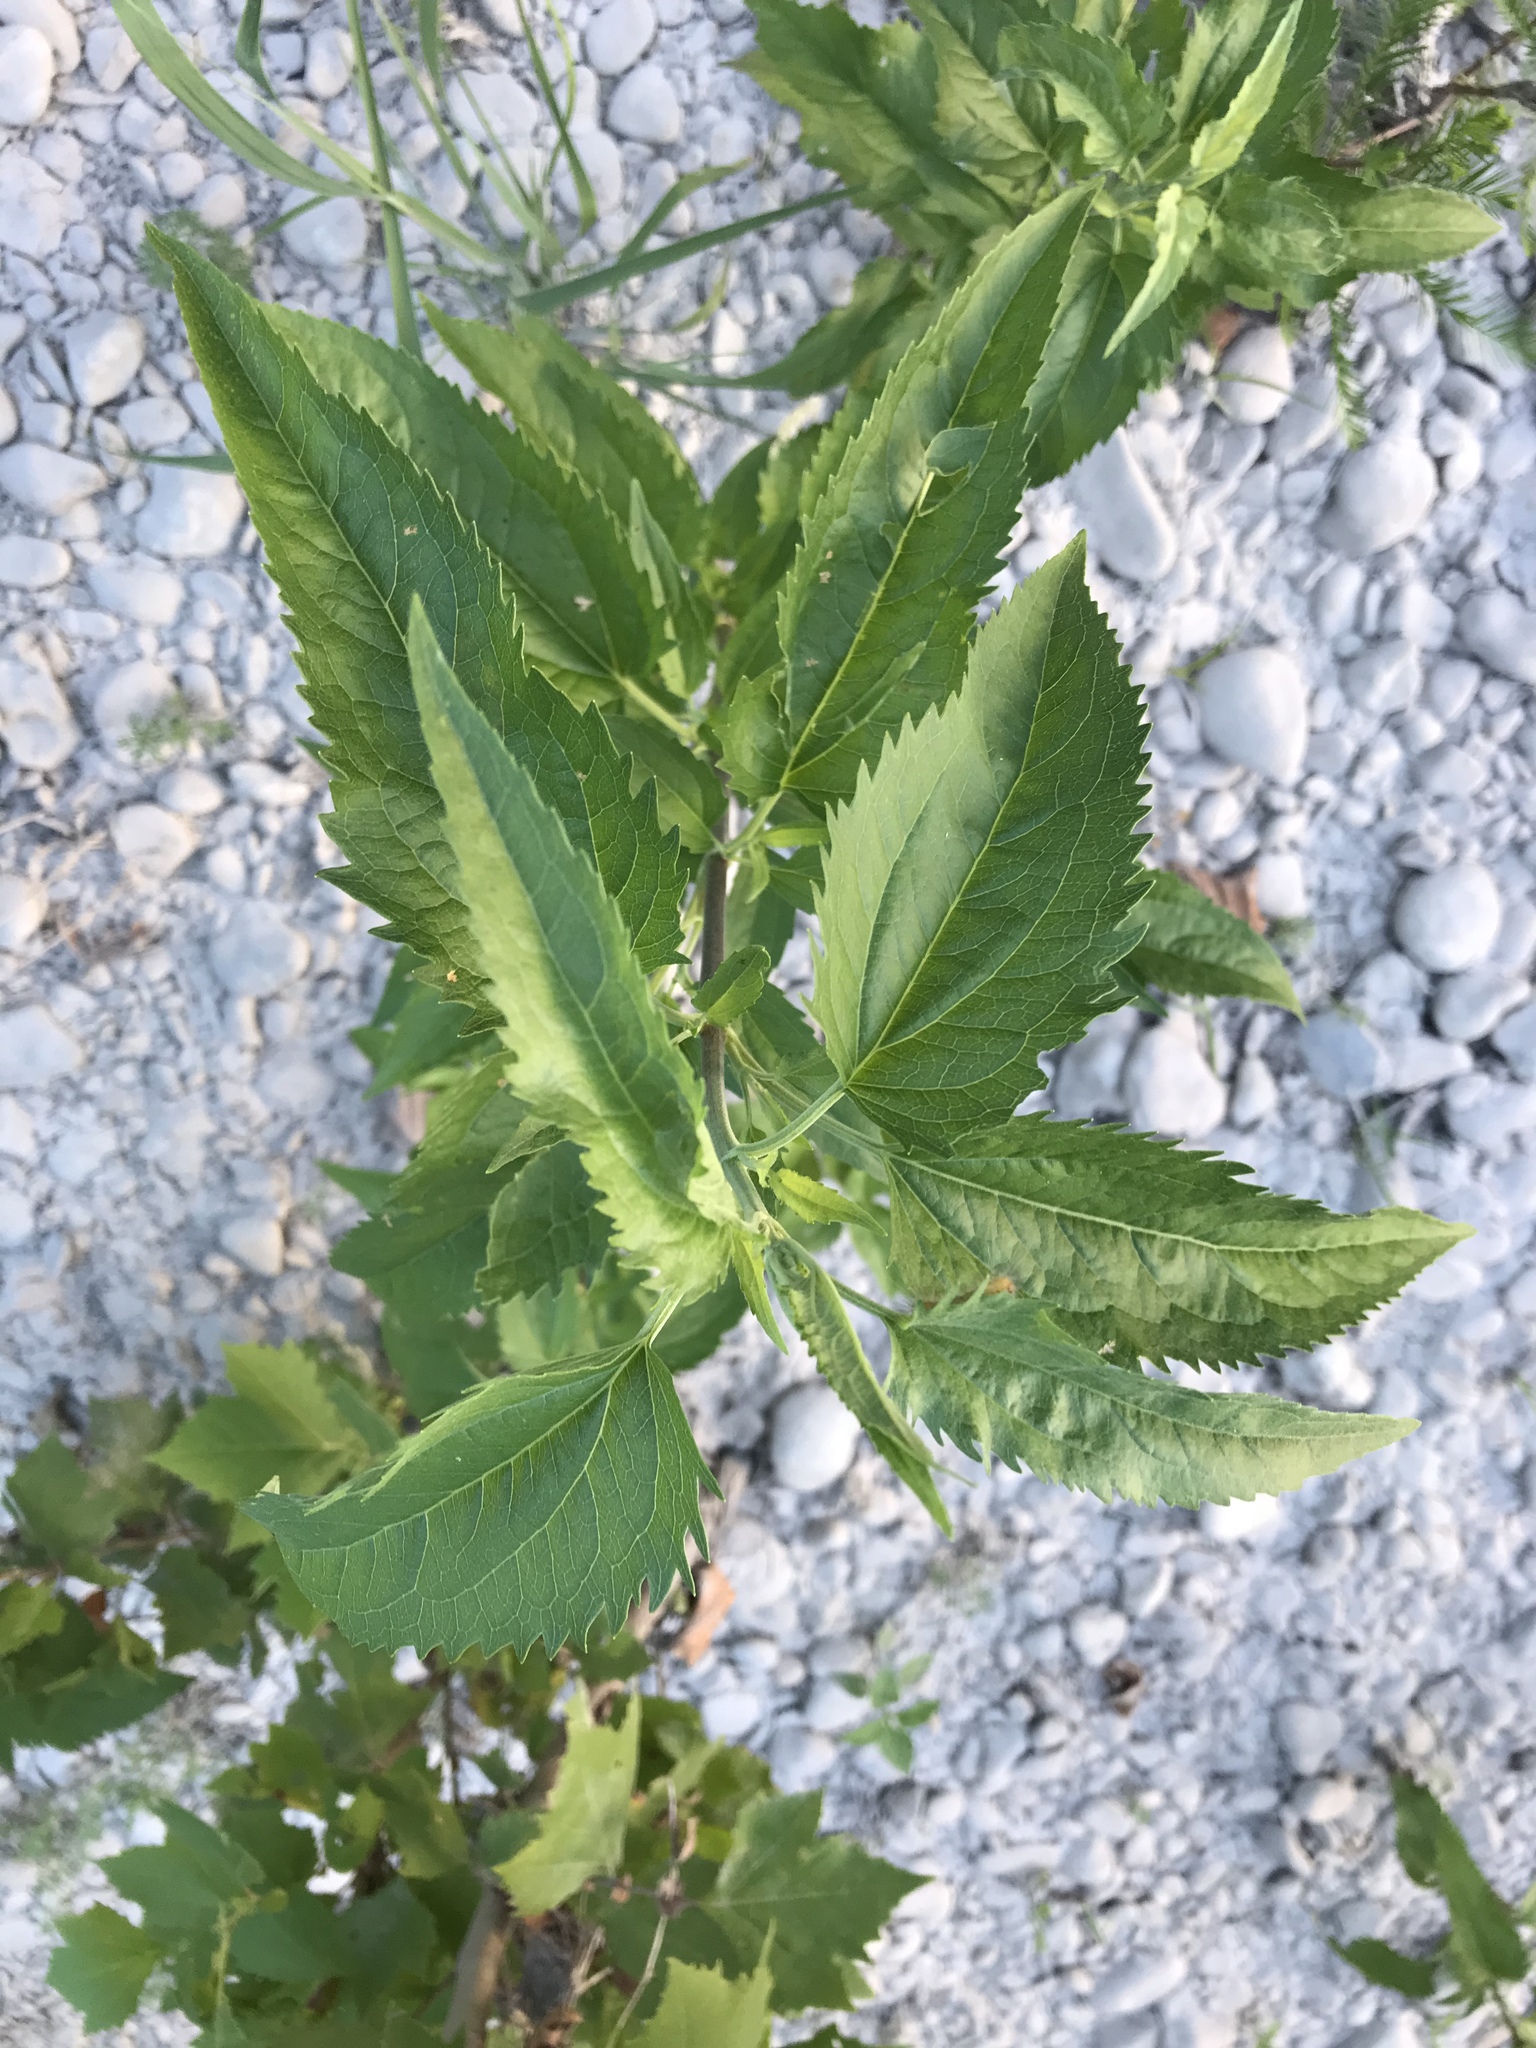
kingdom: Plantae
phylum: Tracheophyta
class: Magnoliopsida
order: Asterales
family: Asteraceae
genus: Eupatorium
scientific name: Eupatorium serotinum
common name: Late boneset
